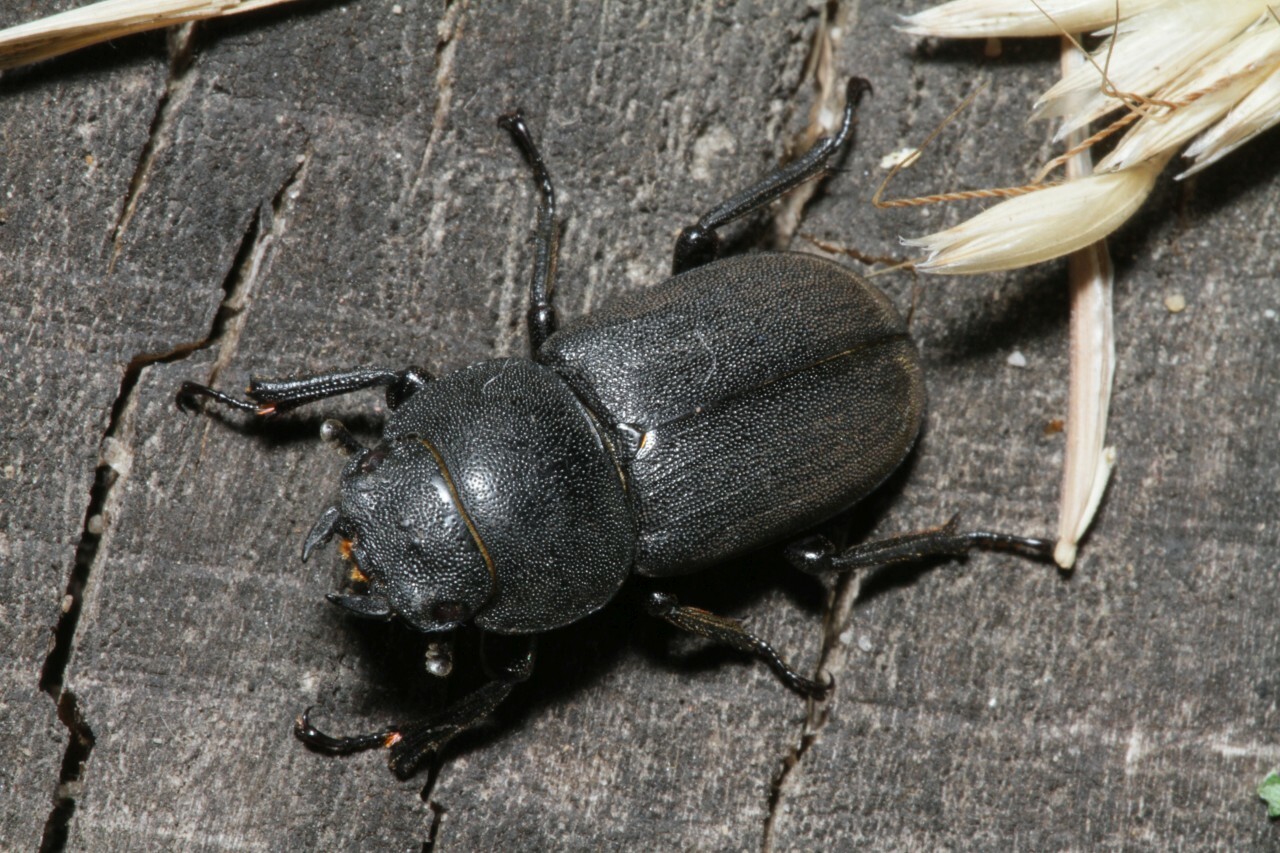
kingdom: Animalia
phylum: Arthropoda
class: Insecta
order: Coleoptera
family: Lucanidae
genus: Dorcus
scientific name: Dorcus parallelipipedus
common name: Lesser stag beetle
